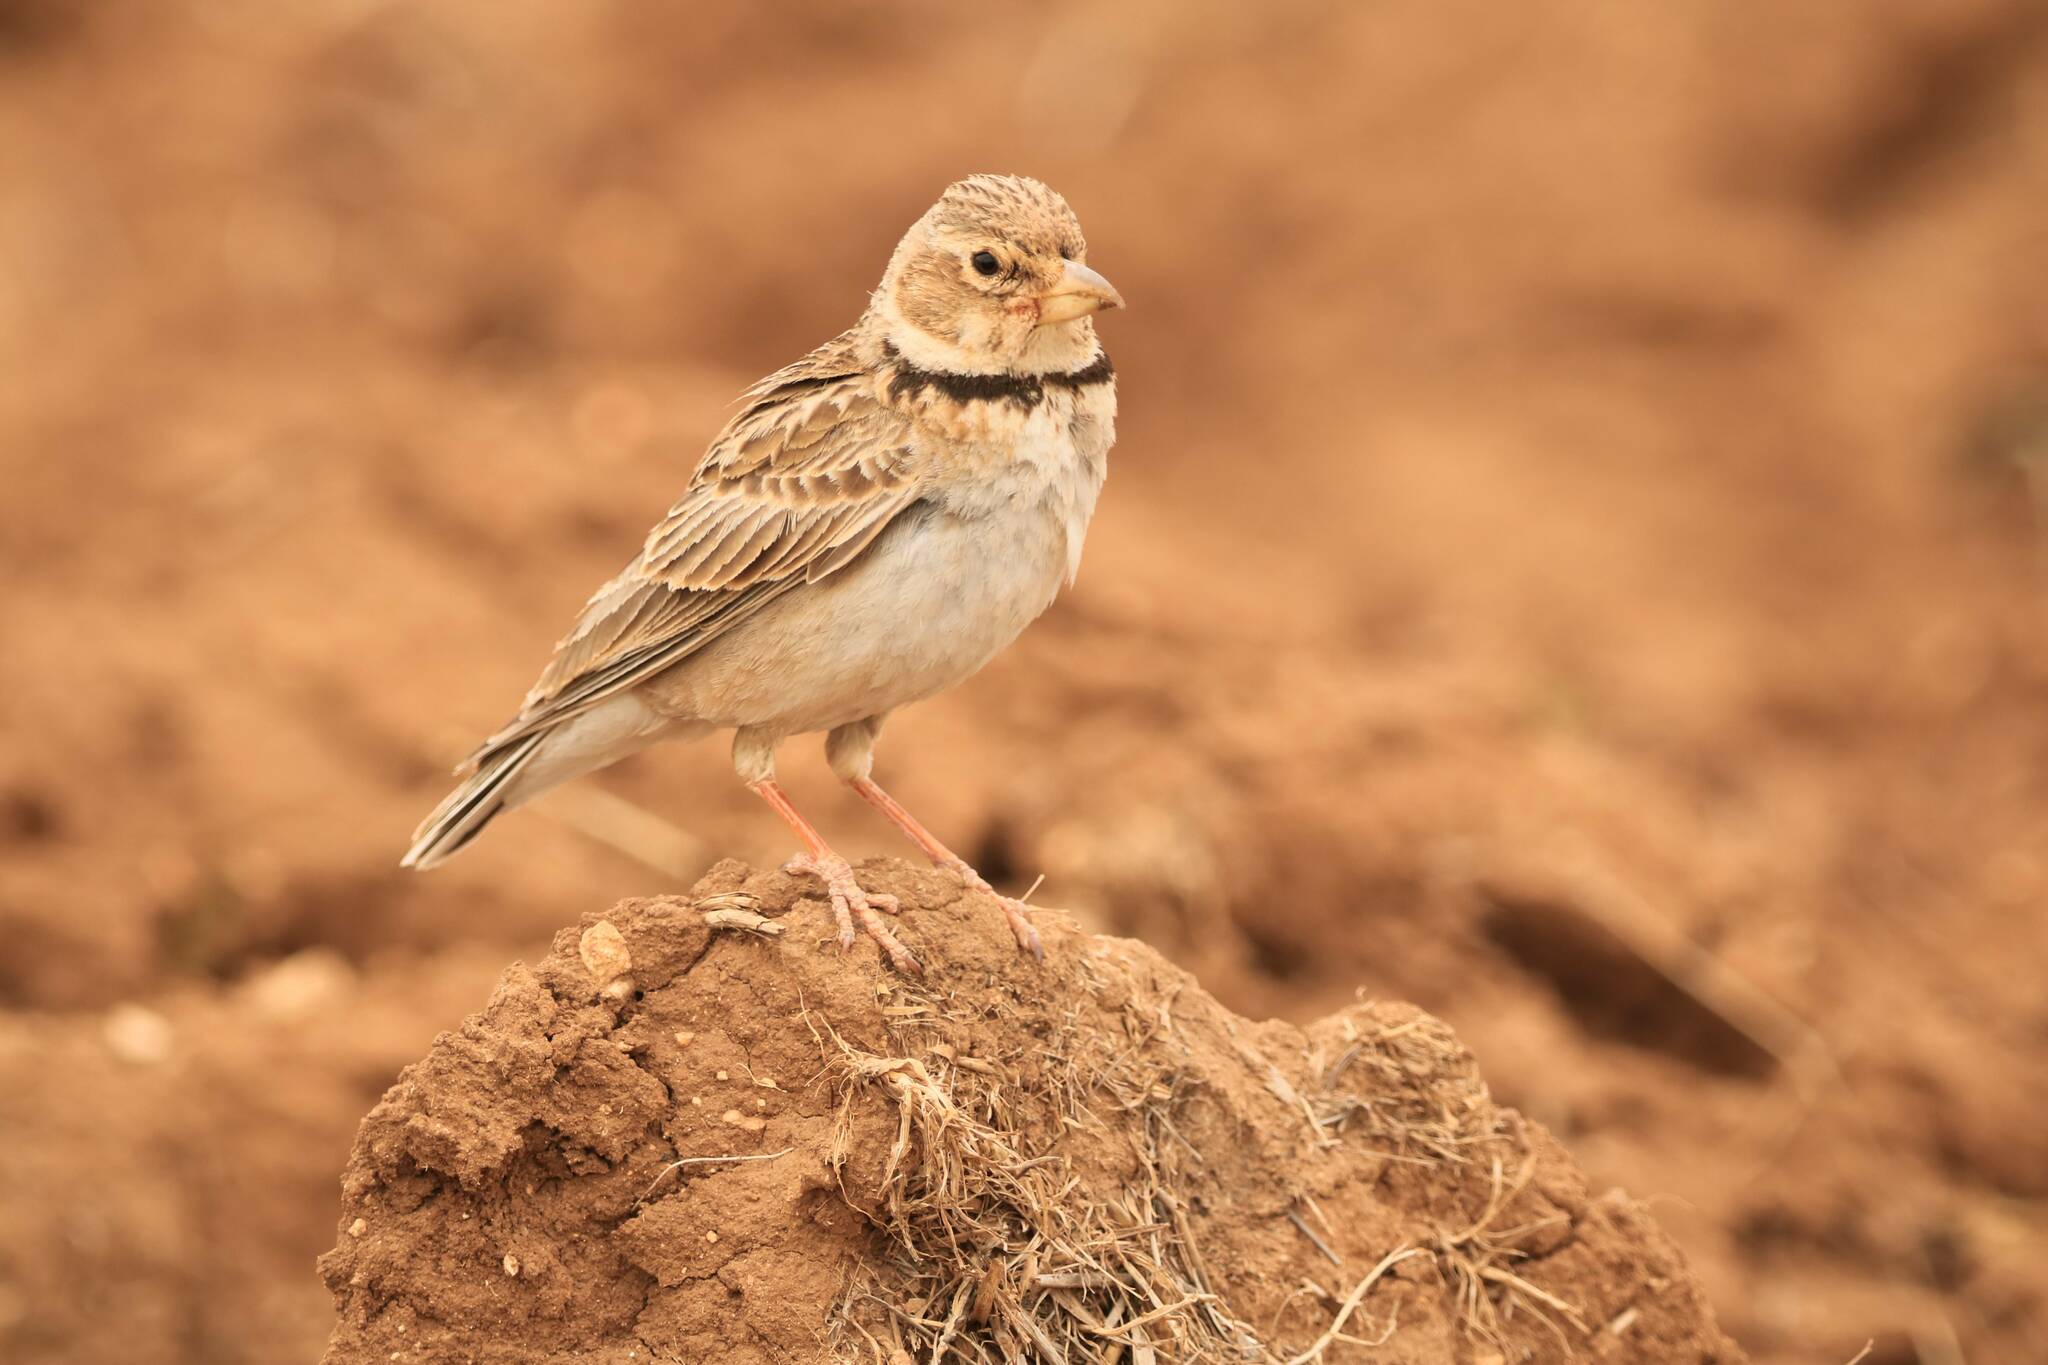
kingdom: Animalia
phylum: Chordata
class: Aves
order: Passeriformes
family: Alaudidae
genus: Melanocorypha
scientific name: Melanocorypha calandra
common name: Calandra lark
